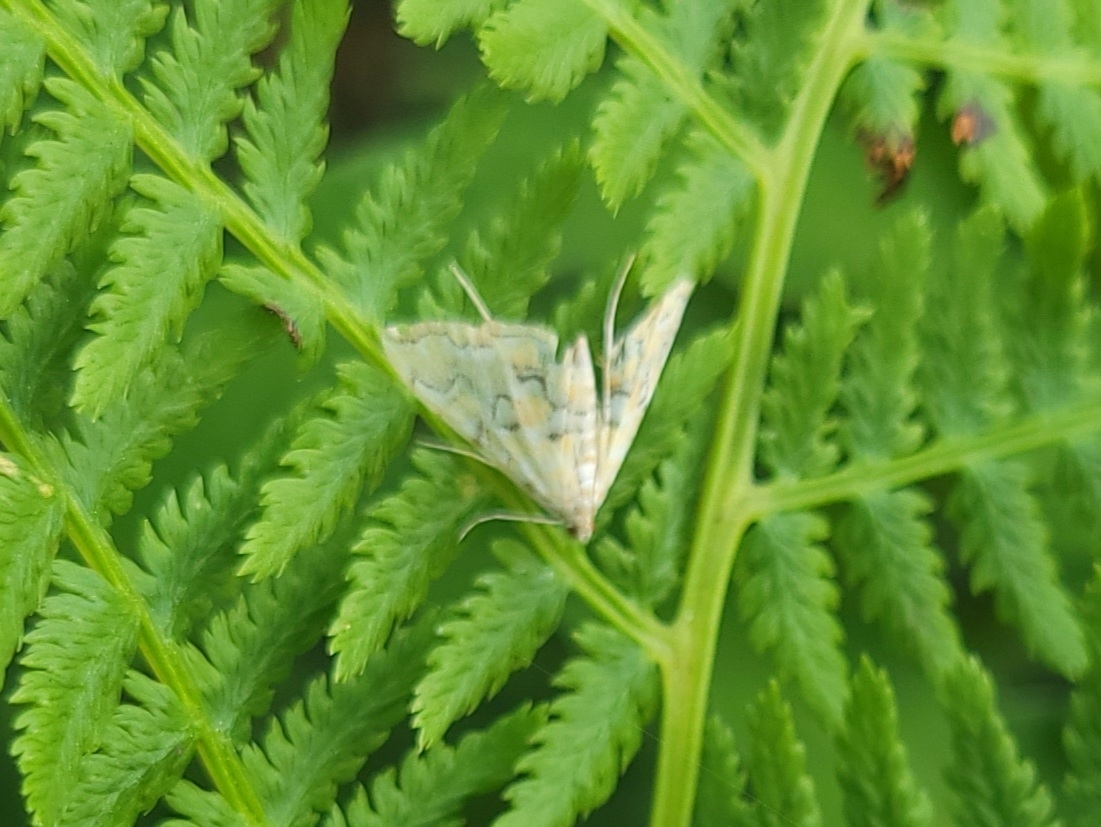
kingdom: Animalia
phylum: Arthropoda
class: Insecta
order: Lepidoptera
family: Crambidae
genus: Elophila
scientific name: Elophila icciusalis
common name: Pondside pyralid moth
